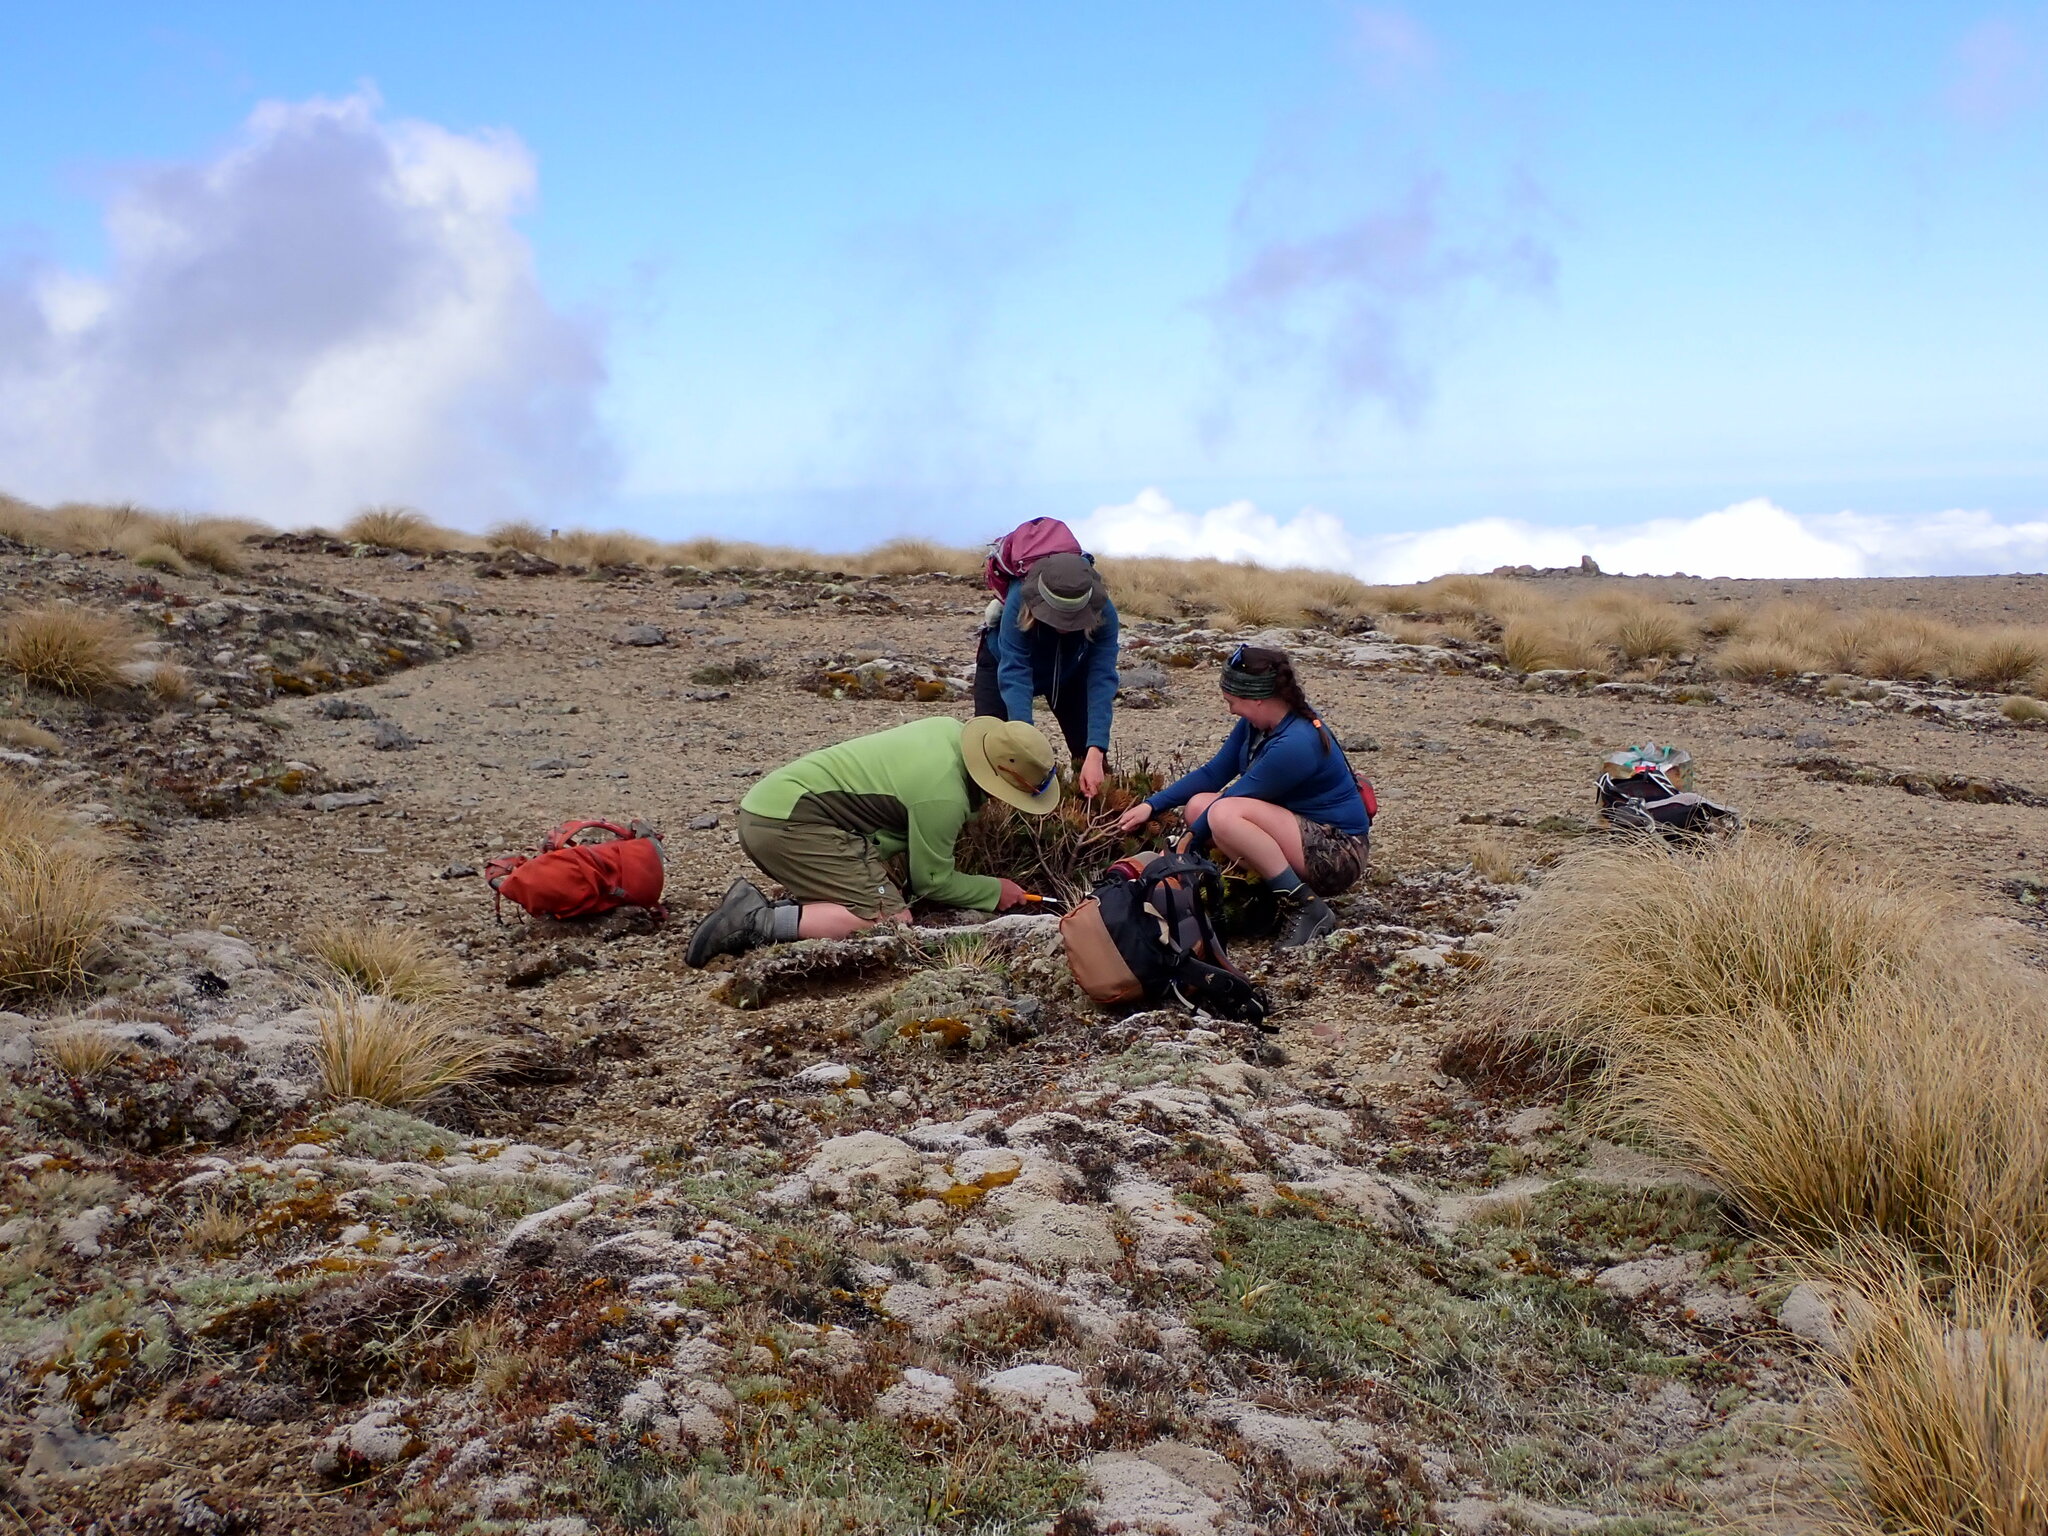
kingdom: Plantae
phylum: Tracheophyta
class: Pinopsida
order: Pinales
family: Pinaceae
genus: Pinus
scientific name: Pinus contorta
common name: Lodgepole pine
